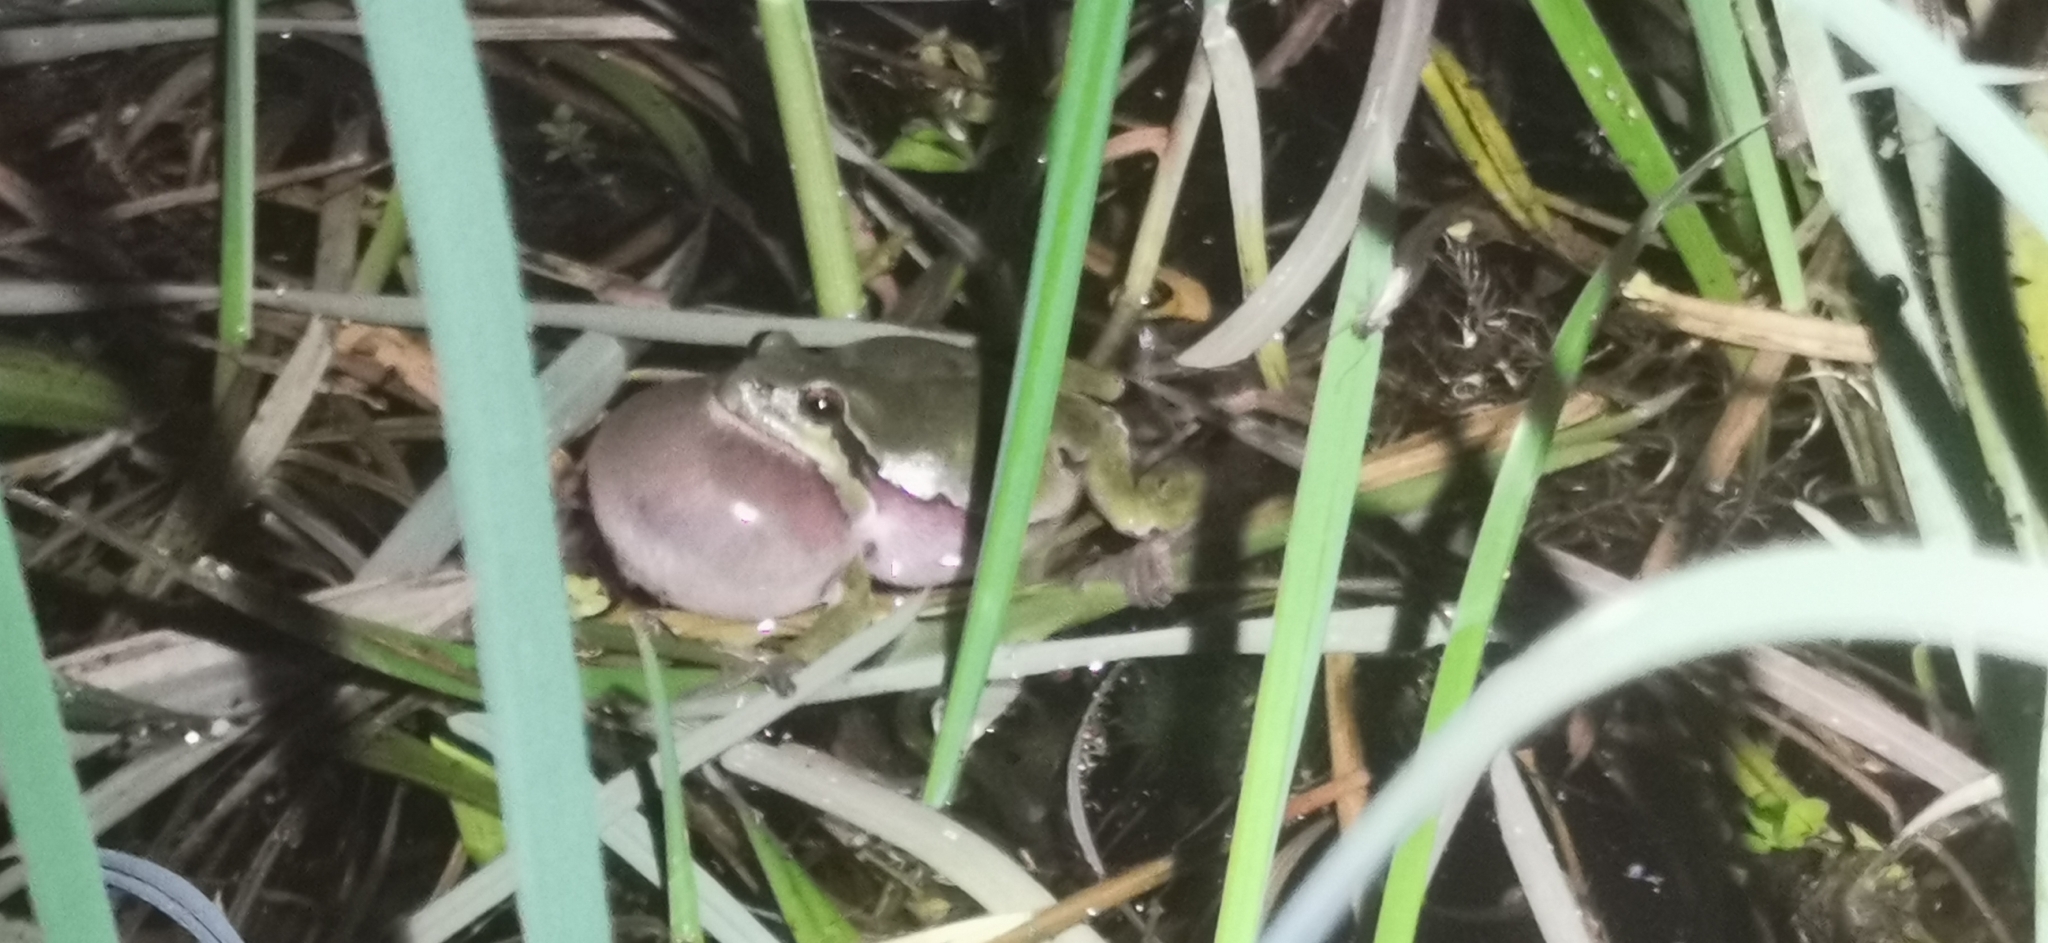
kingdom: Animalia
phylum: Chordata
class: Amphibia
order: Anura
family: Hylidae
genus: Hyla
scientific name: Hyla arborea
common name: Common tree frog
